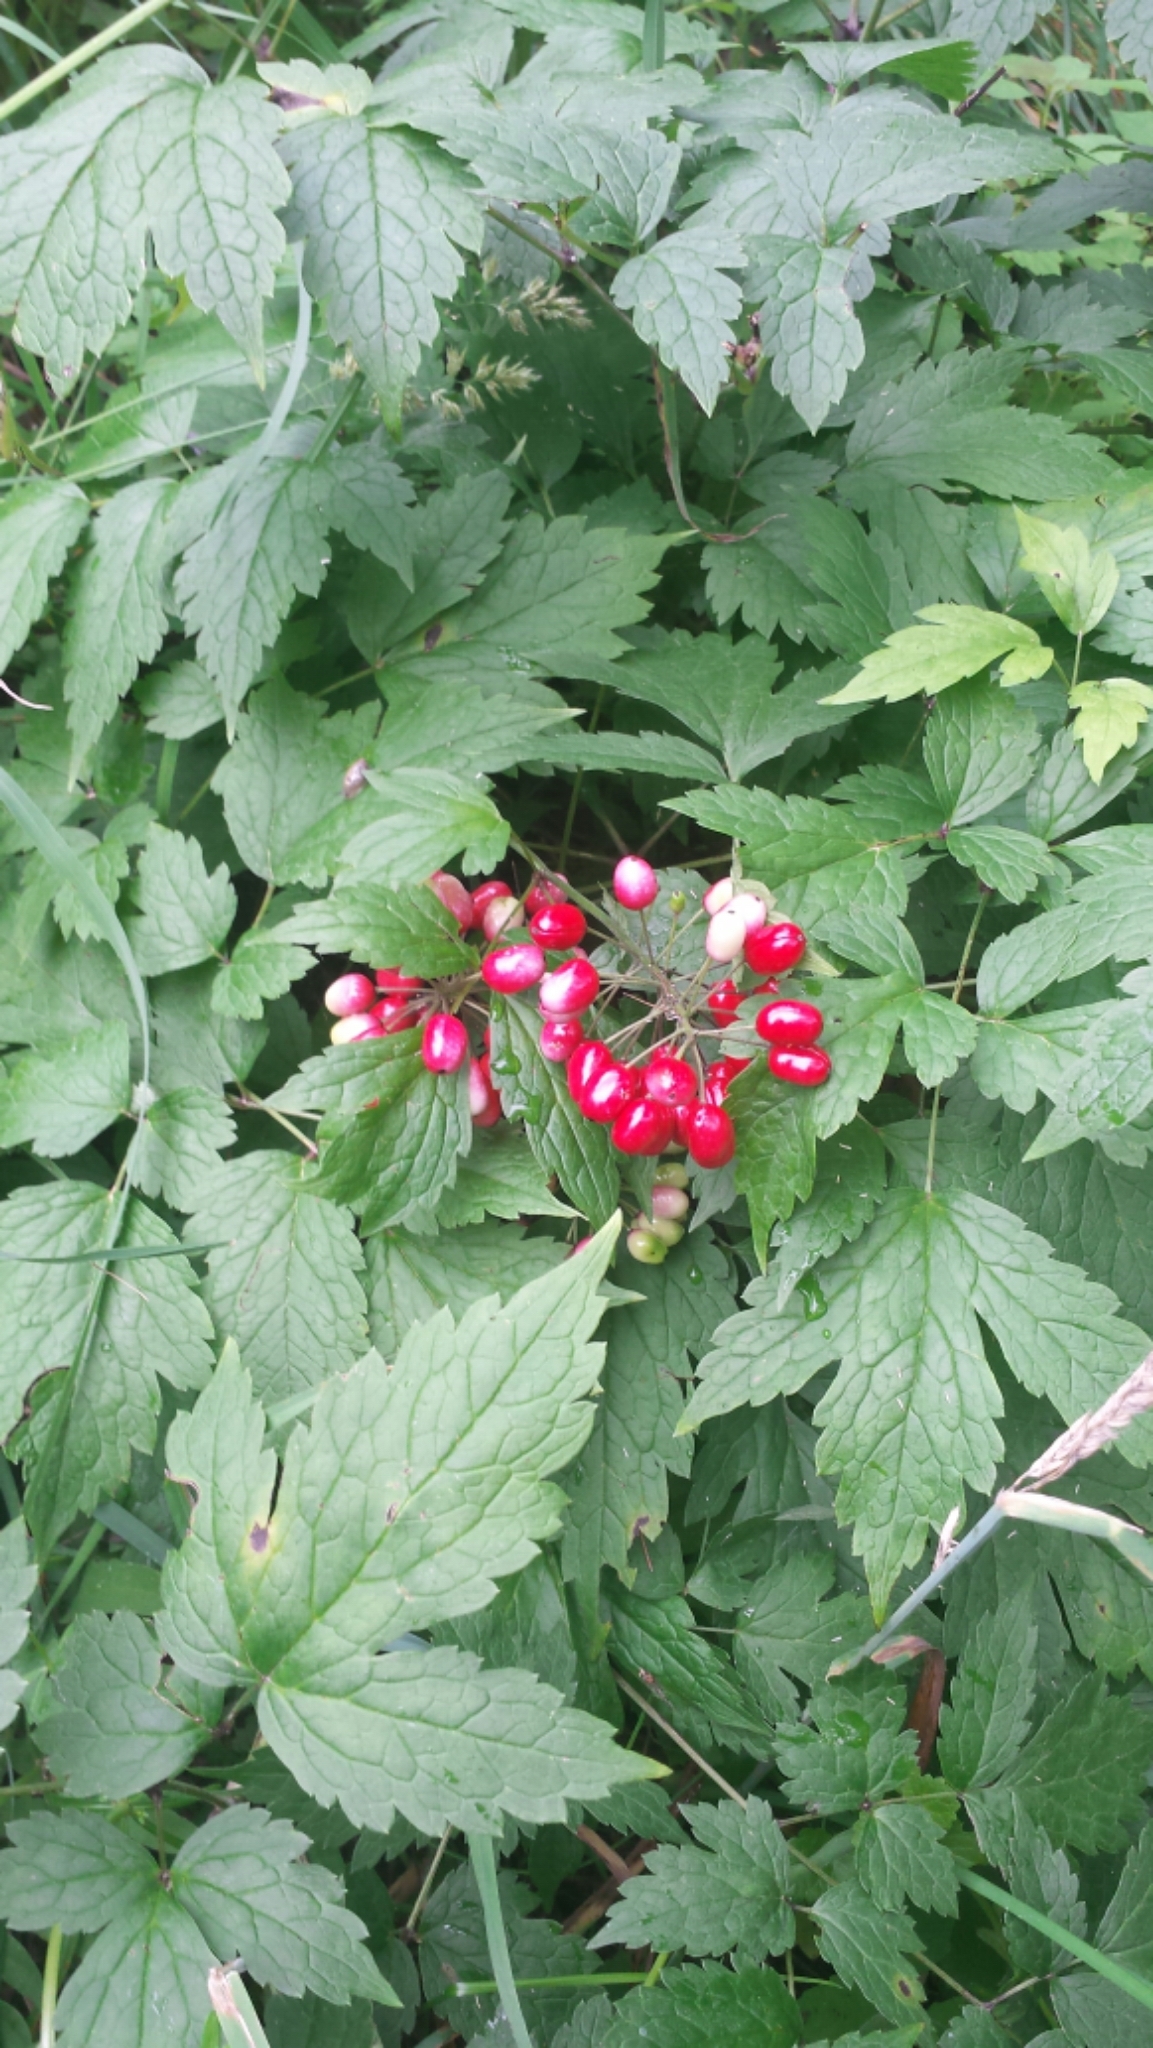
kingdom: Plantae
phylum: Tracheophyta
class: Magnoliopsida
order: Ranunculales
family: Ranunculaceae
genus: Actaea
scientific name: Actaea rubra
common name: Red baneberry
